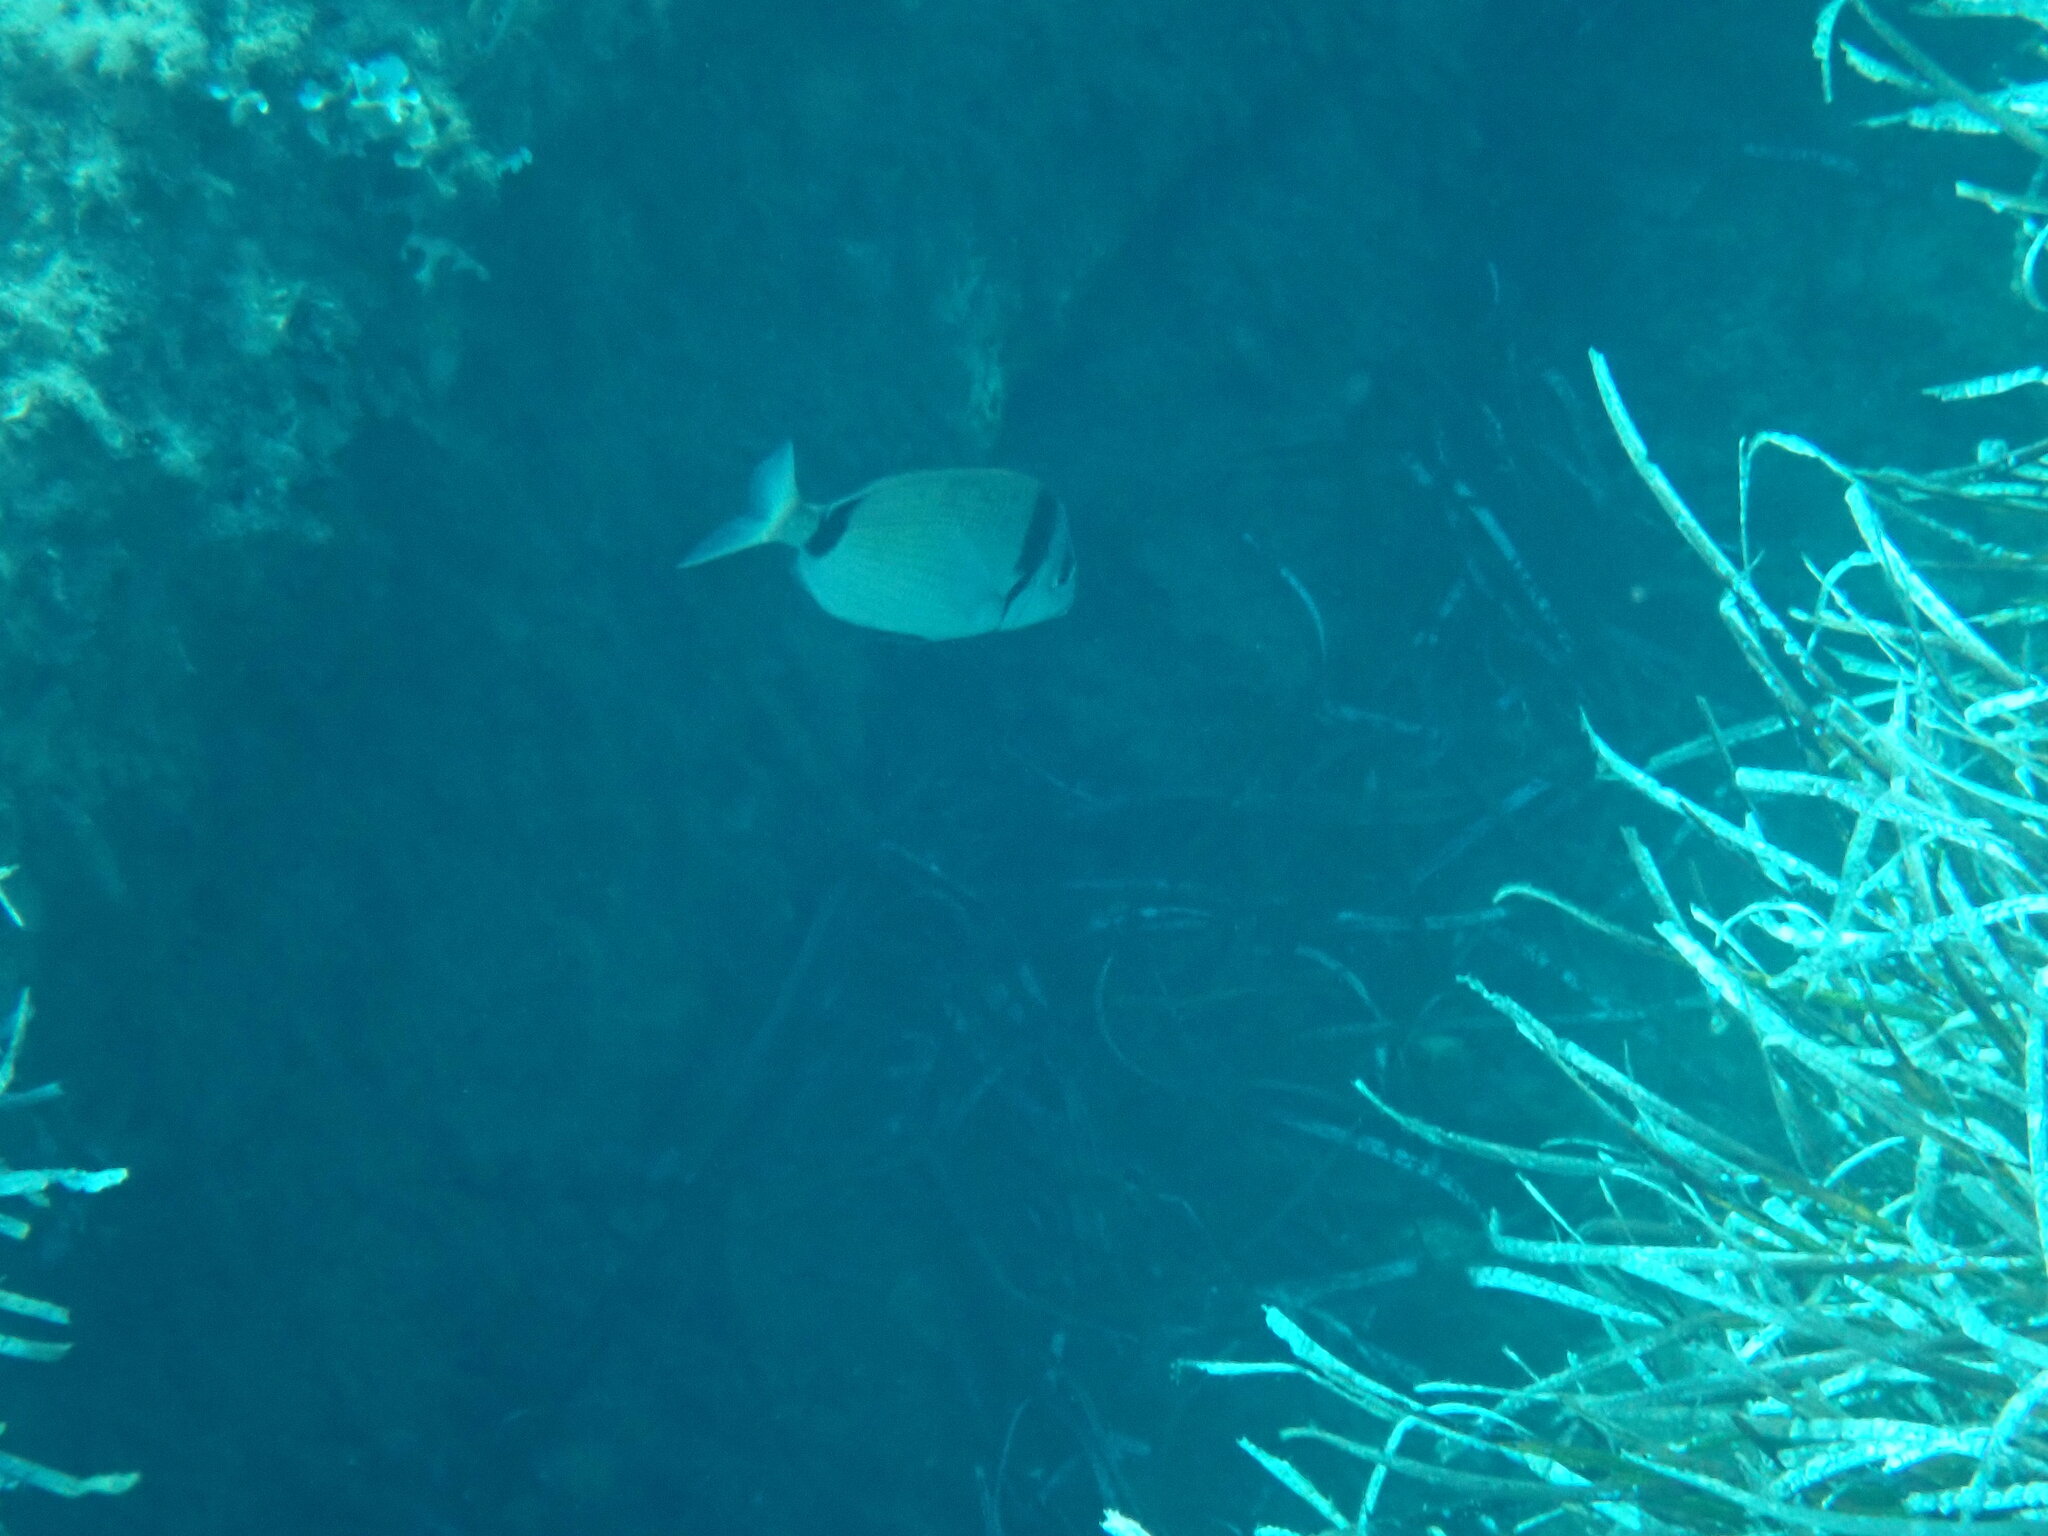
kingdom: Animalia
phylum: Chordata
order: Perciformes
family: Sparidae
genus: Diplodus
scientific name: Diplodus vulgaris
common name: Common two-banded seabream
